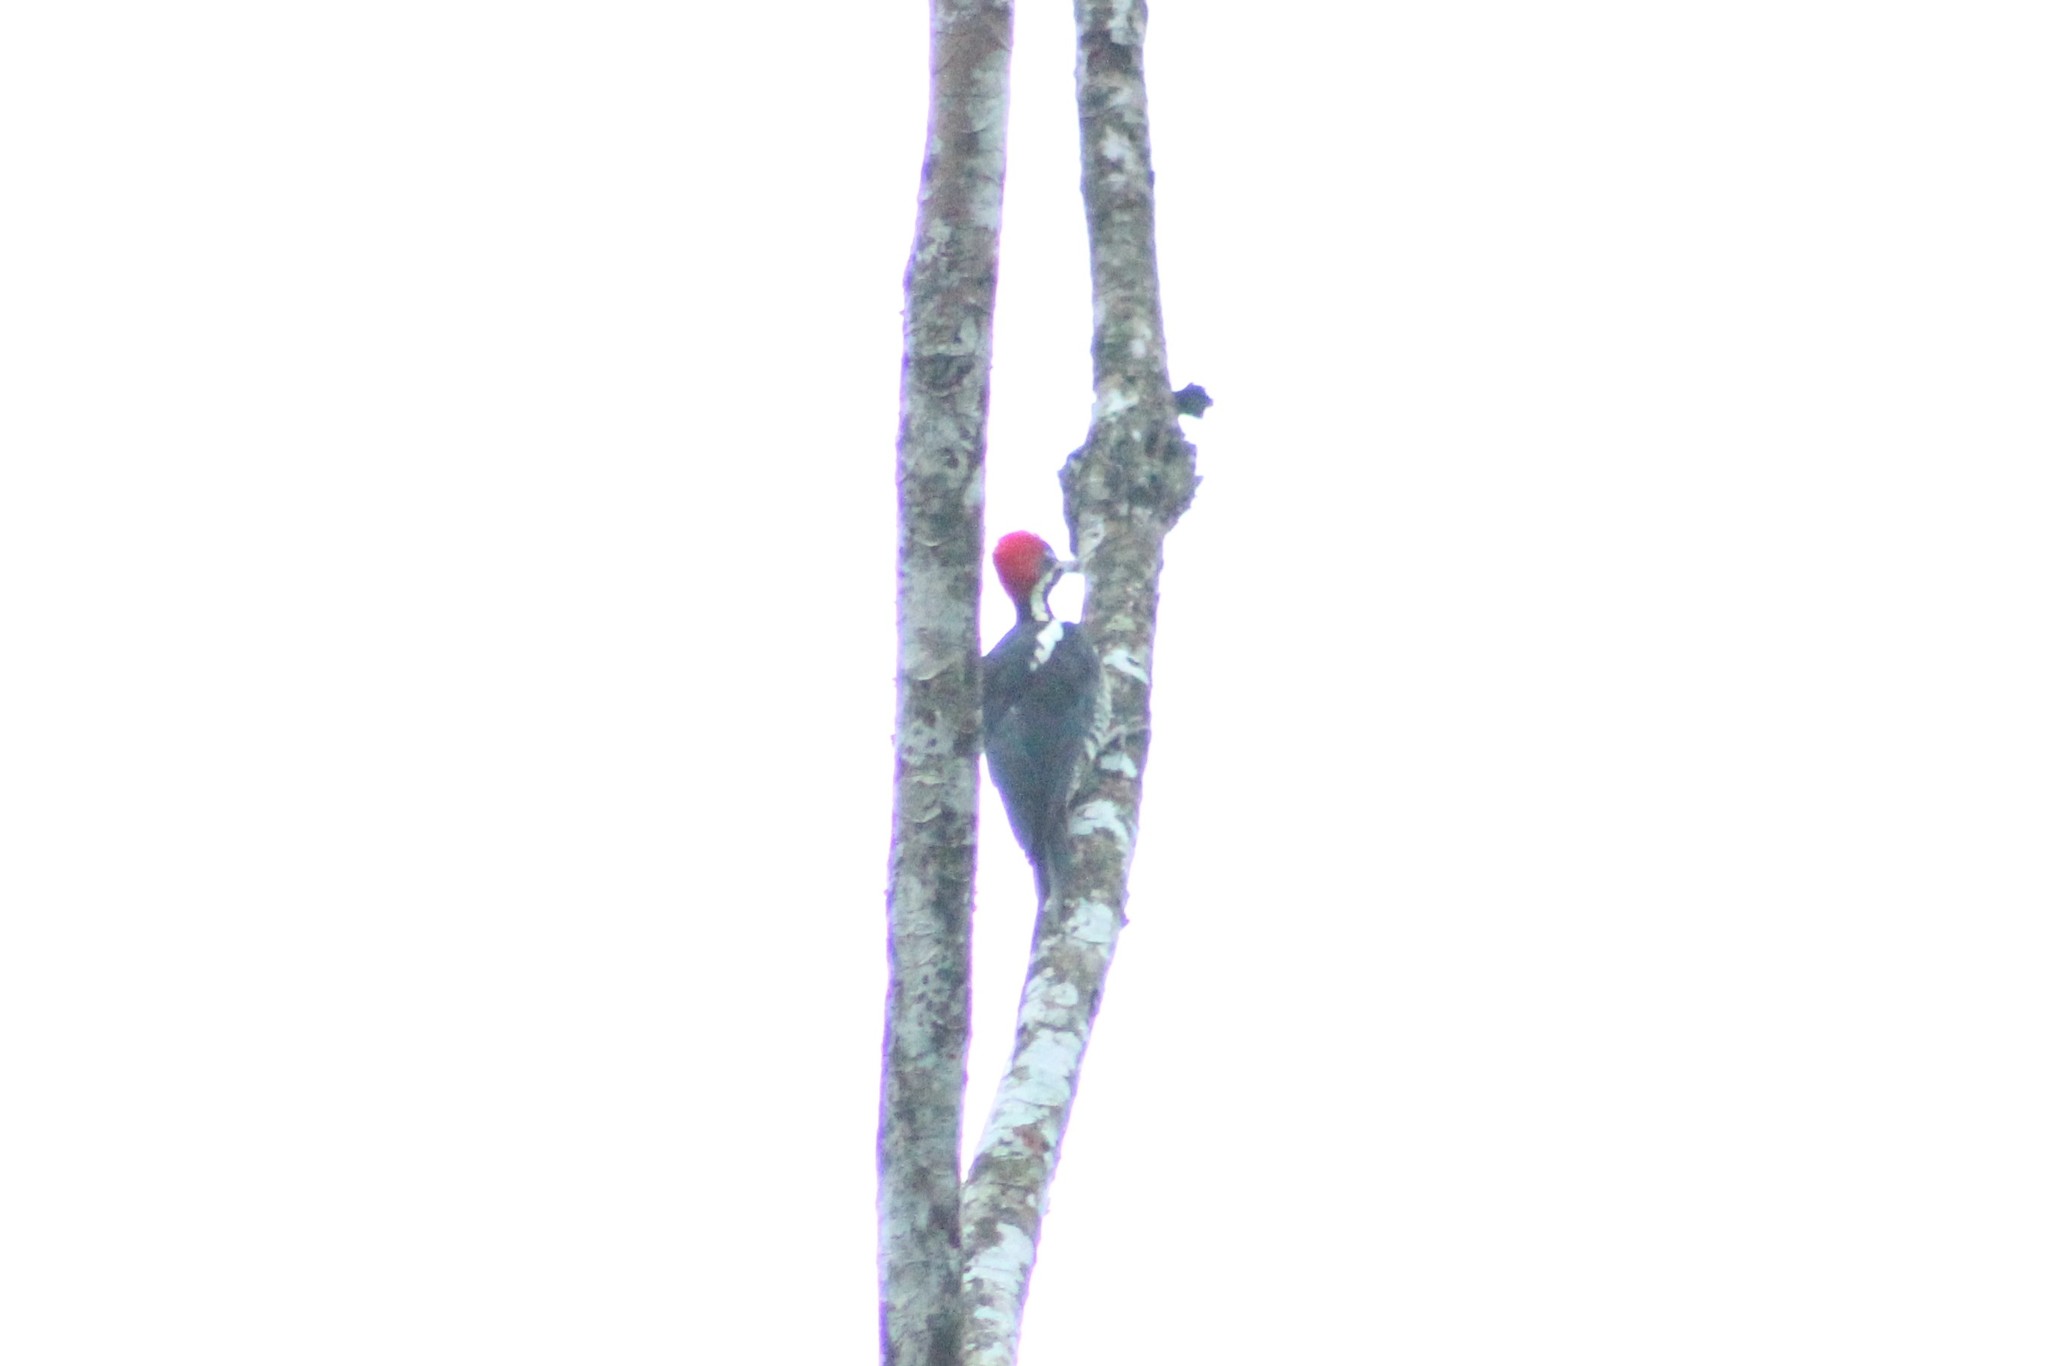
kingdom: Animalia
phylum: Chordata
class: Aves
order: Piciformes
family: Picidae
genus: Dryocopus
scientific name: Dryocopus lineatus
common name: Lineated woodpecker
